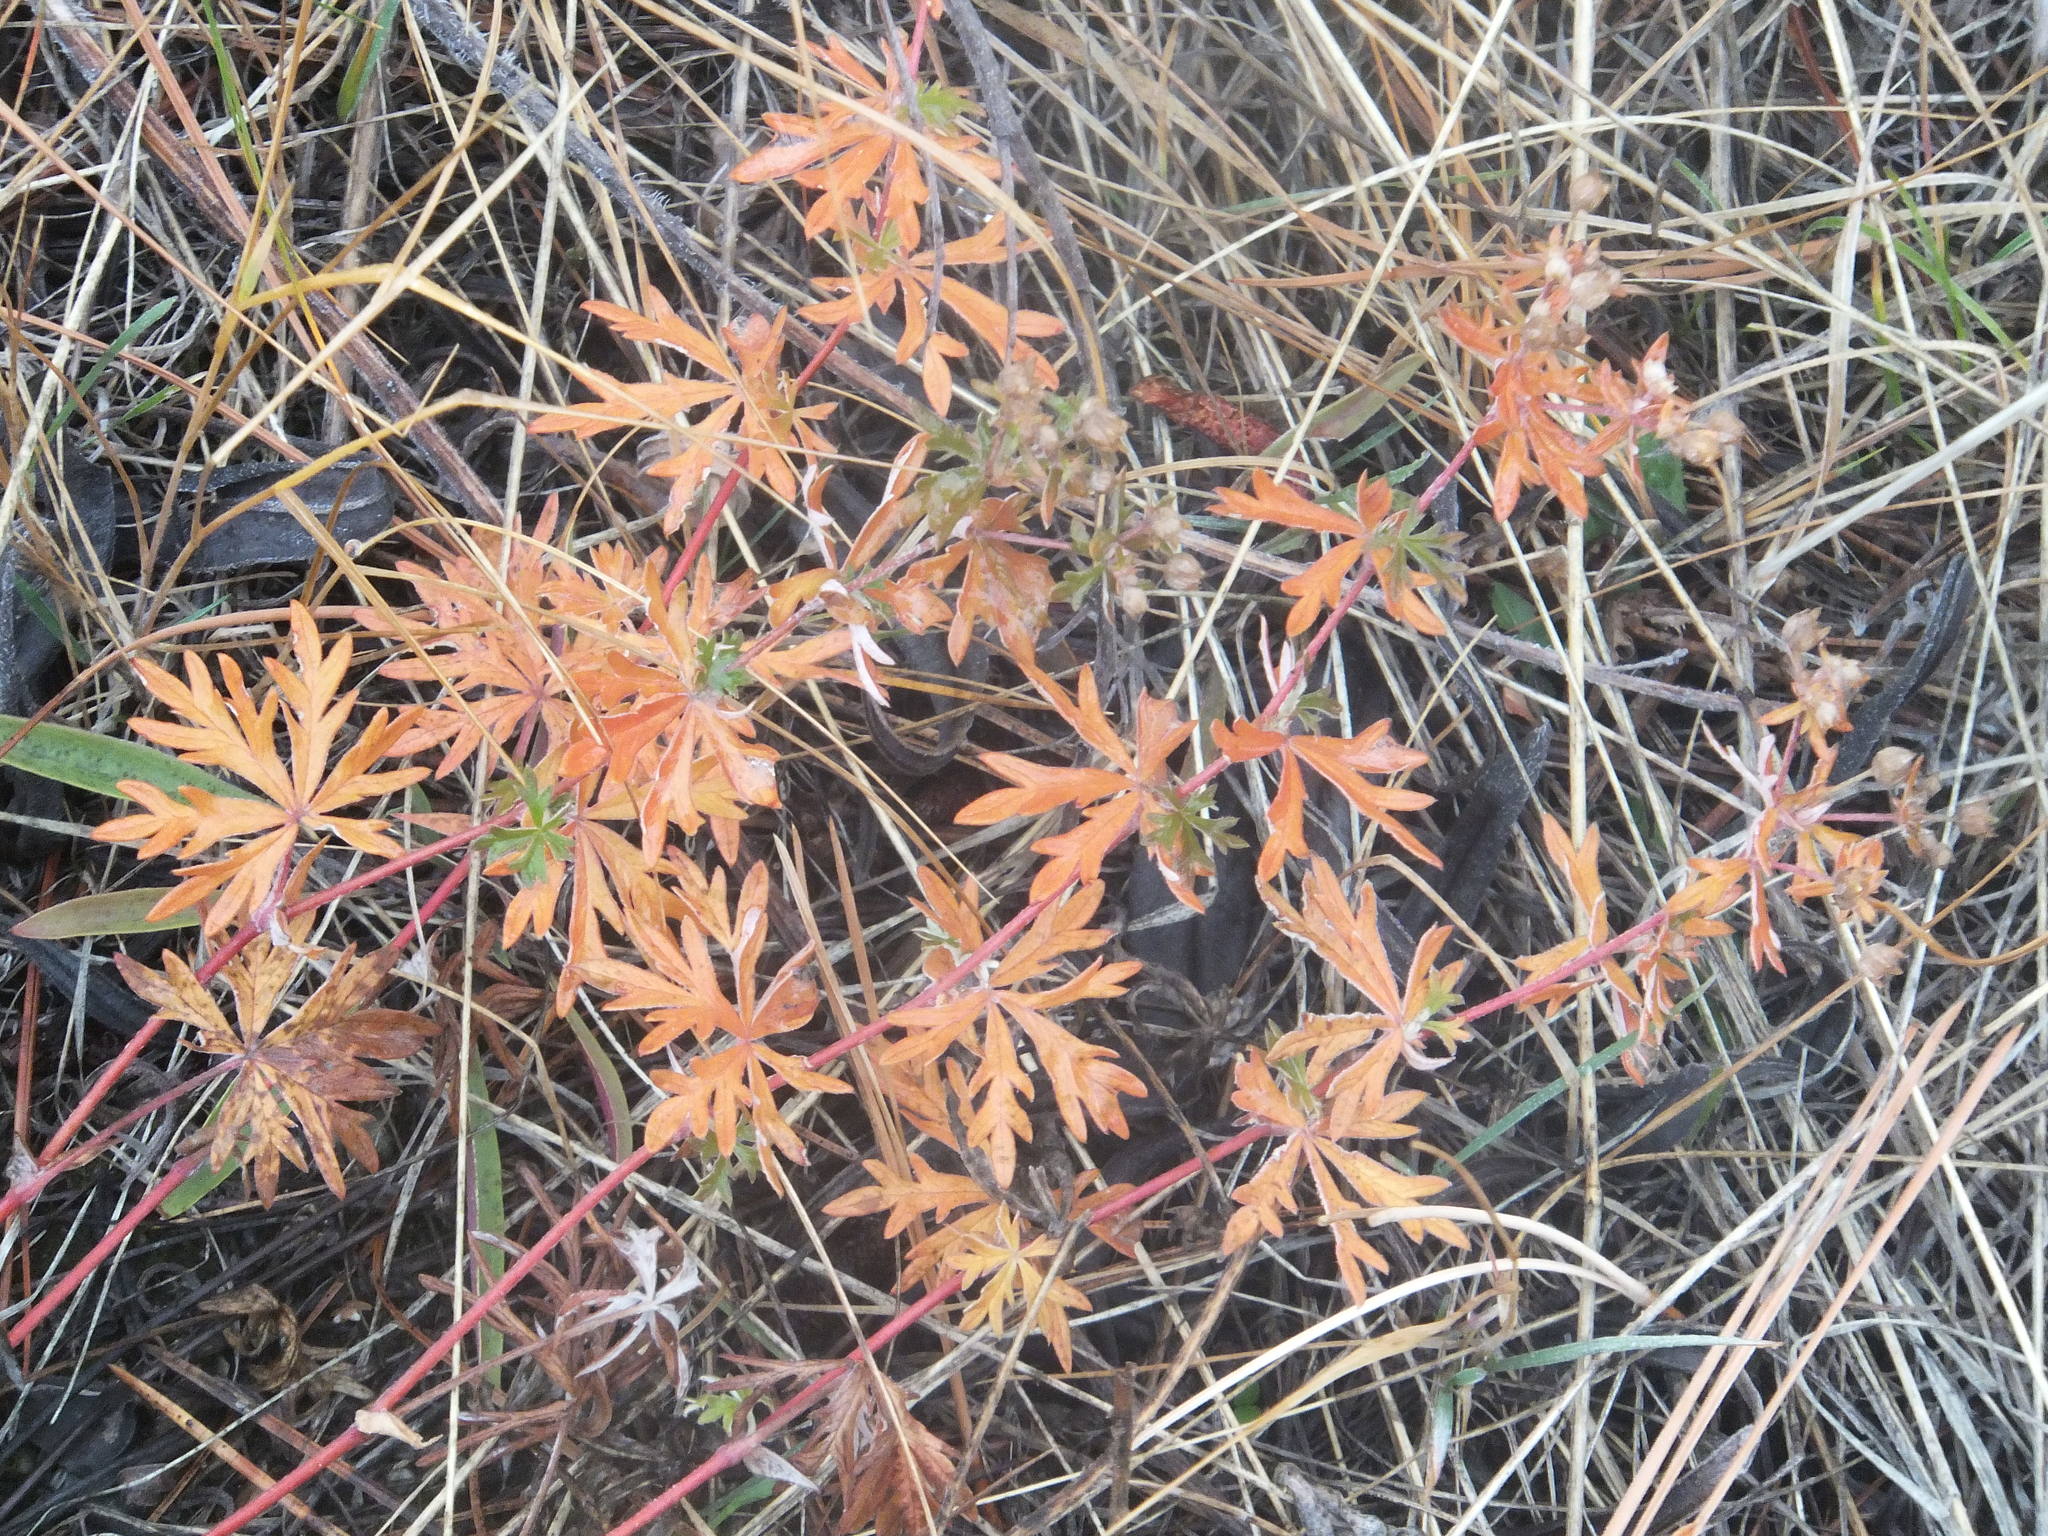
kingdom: Plantae
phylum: Tracheophyta
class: Magnoliopsida
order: Rosales
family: Rosaceae
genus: Potentilla
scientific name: Potentilla argentea
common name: Hoary cinquefoil
